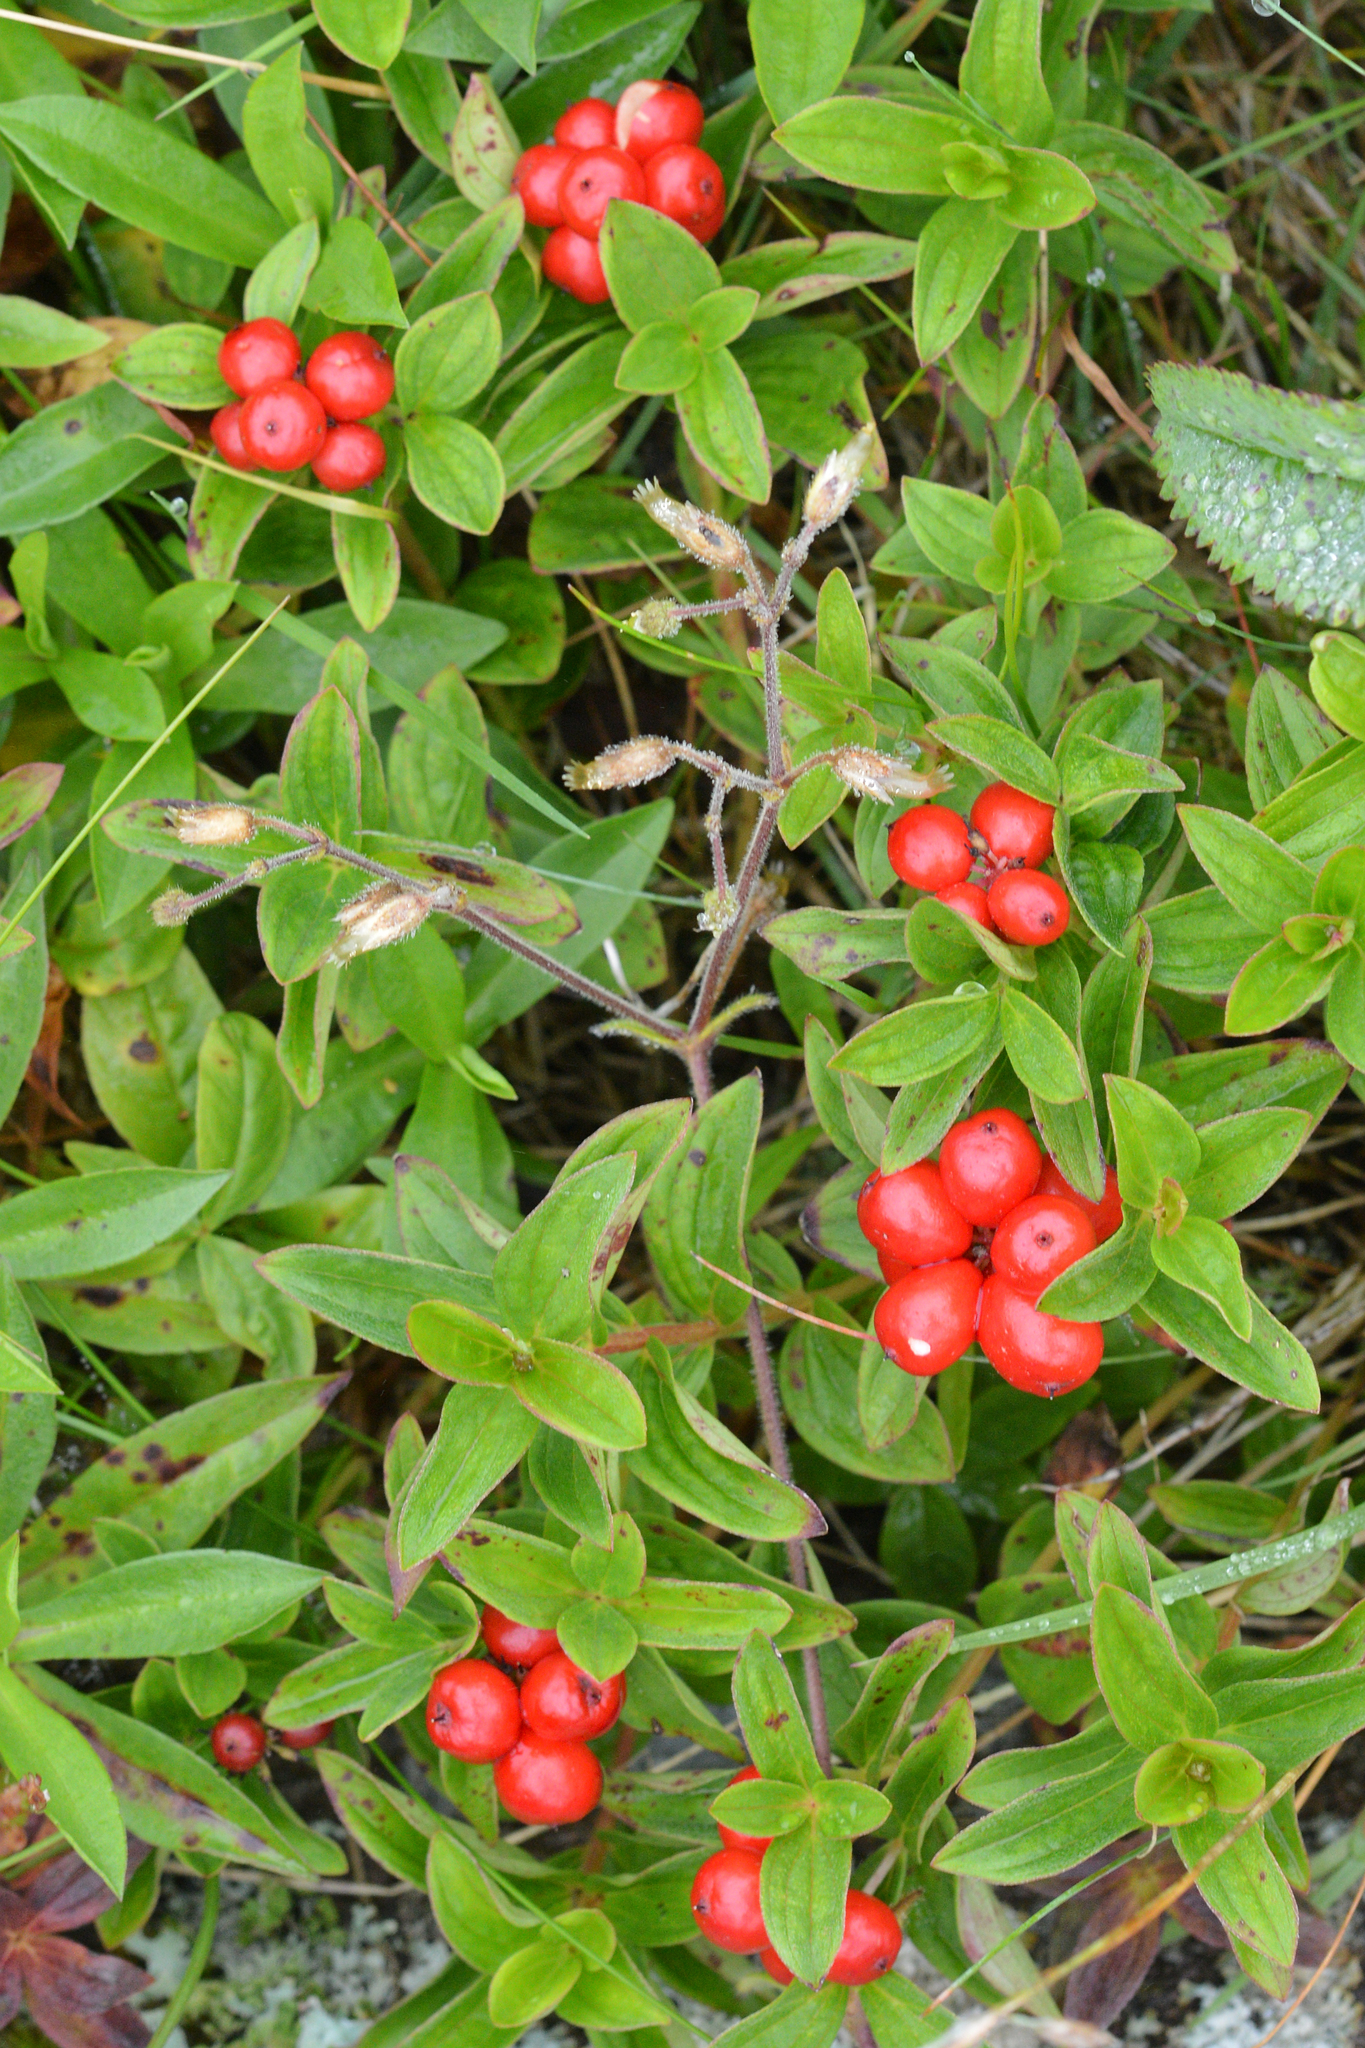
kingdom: Plantae
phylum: Tracheophyta
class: Magnoliopsida
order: Cornales
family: Cornaceae
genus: Cornus
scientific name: Cornus suecica
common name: Dwarf cornel
